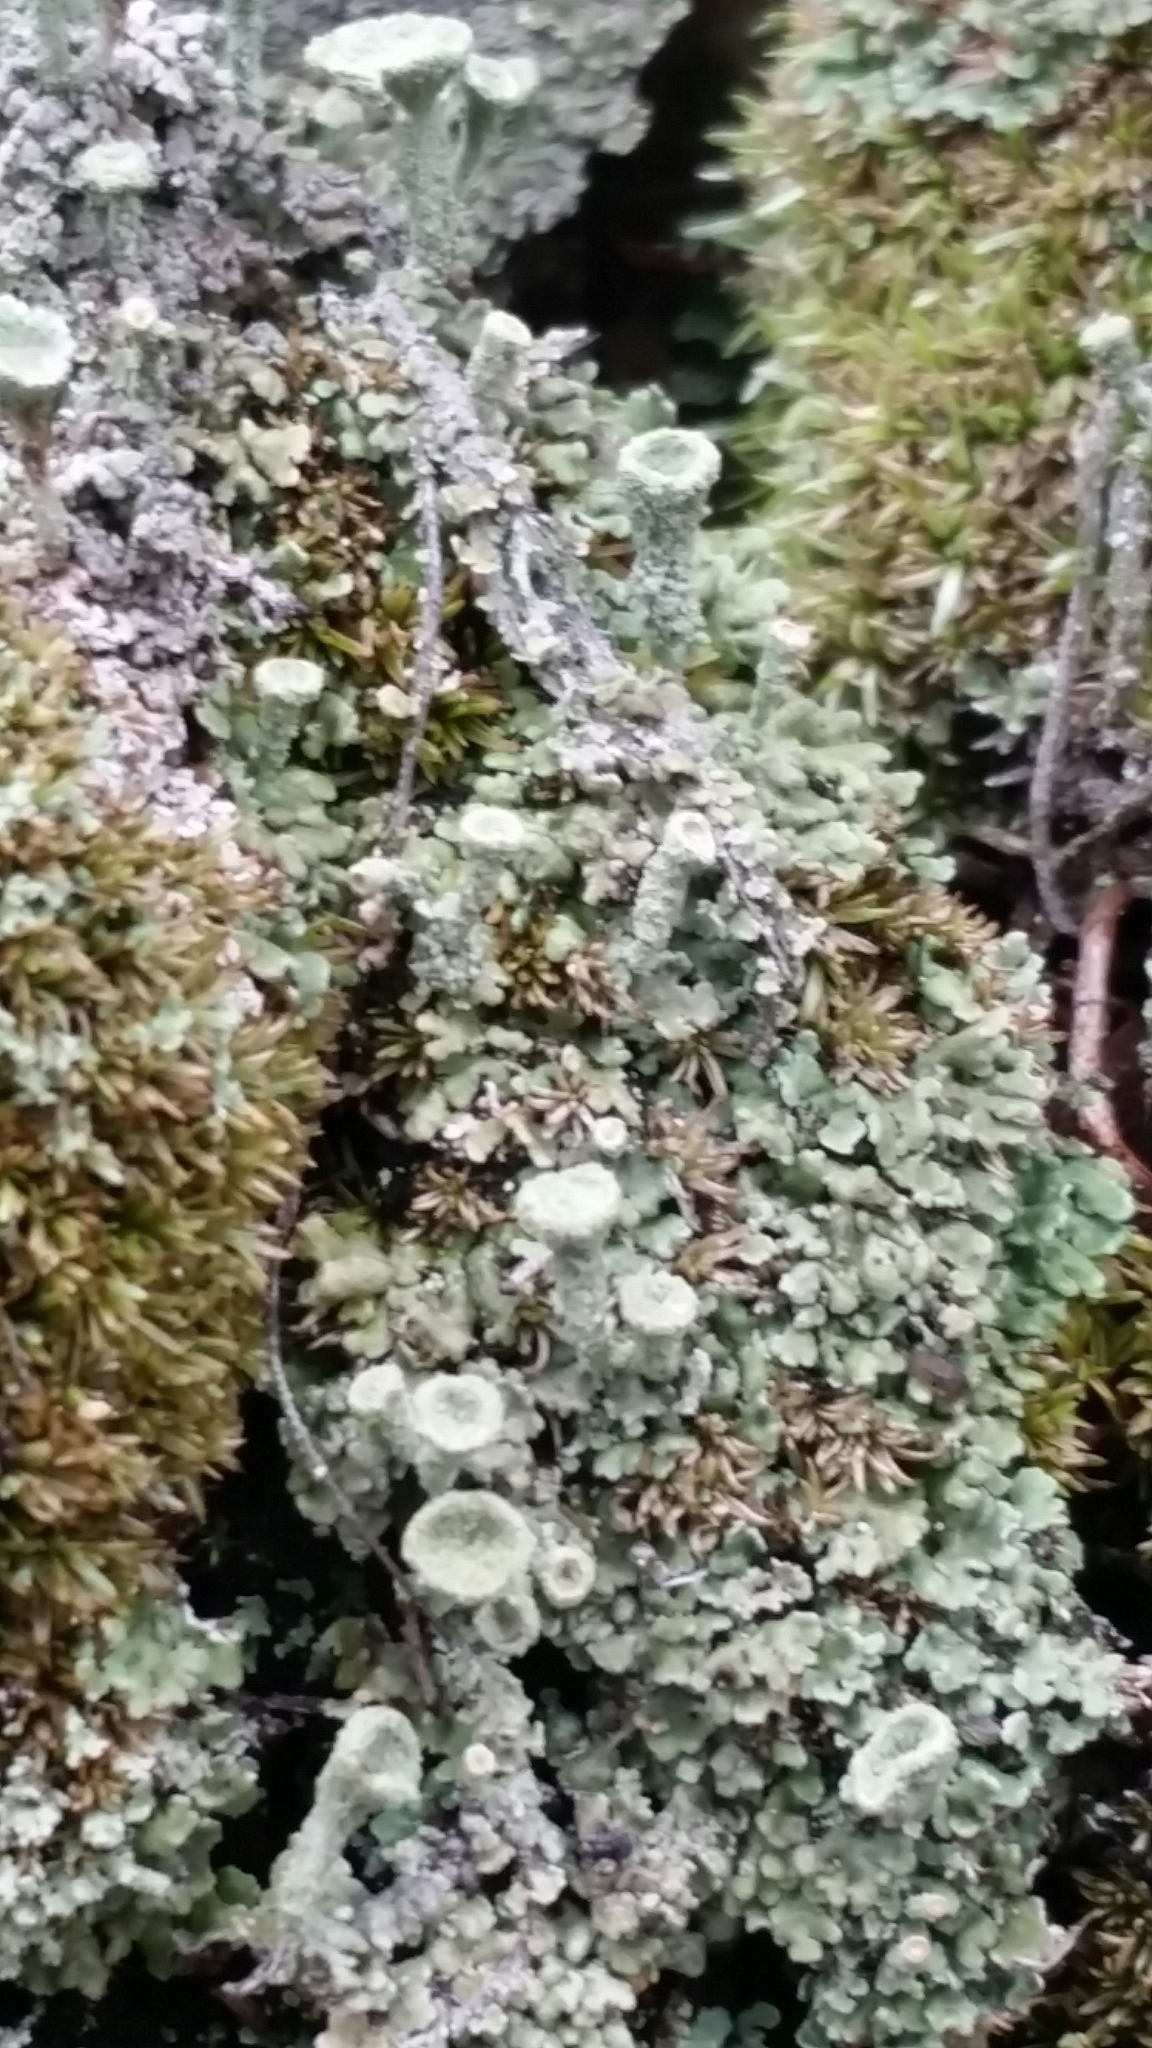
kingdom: Fungi
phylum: Ascomycota
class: Lecanoromycetes
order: Lecanorales
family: Cladoniaceae
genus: Cladonia
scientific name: Cladonia chlorophaea
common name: Mealy pixie cup
